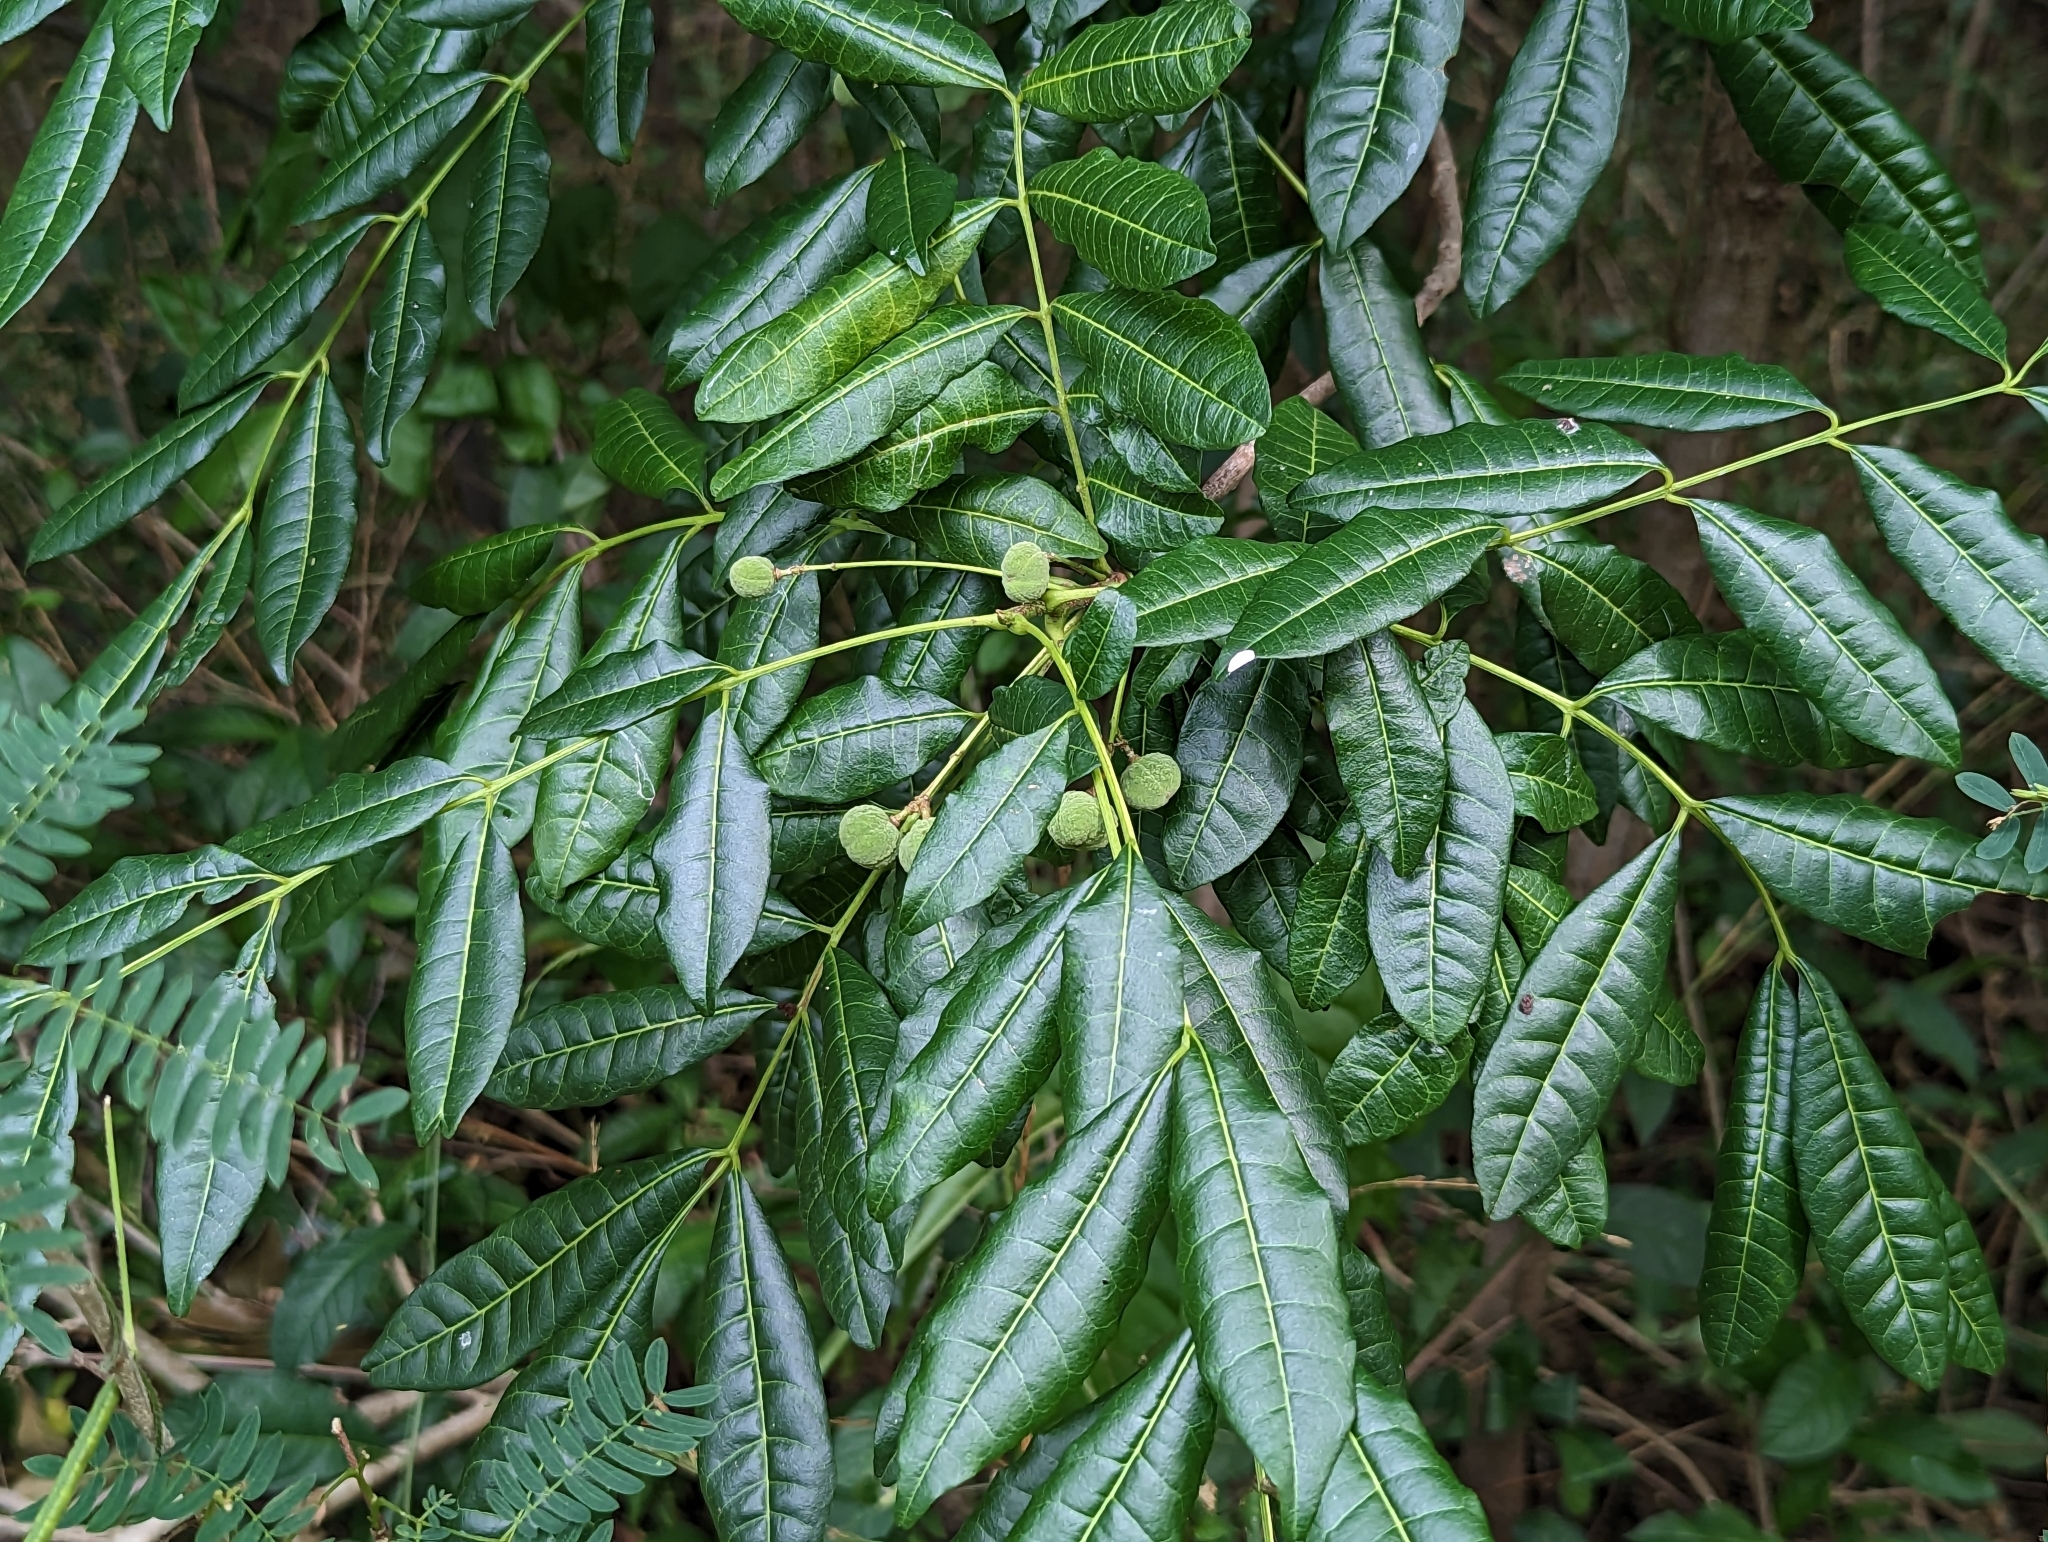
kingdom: Plantae
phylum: Tracheophyta
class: Magnoliopsida
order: Sapindales
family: Meliaceae
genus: Trichilia
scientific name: Trichilia hirta
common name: Red-cedar
